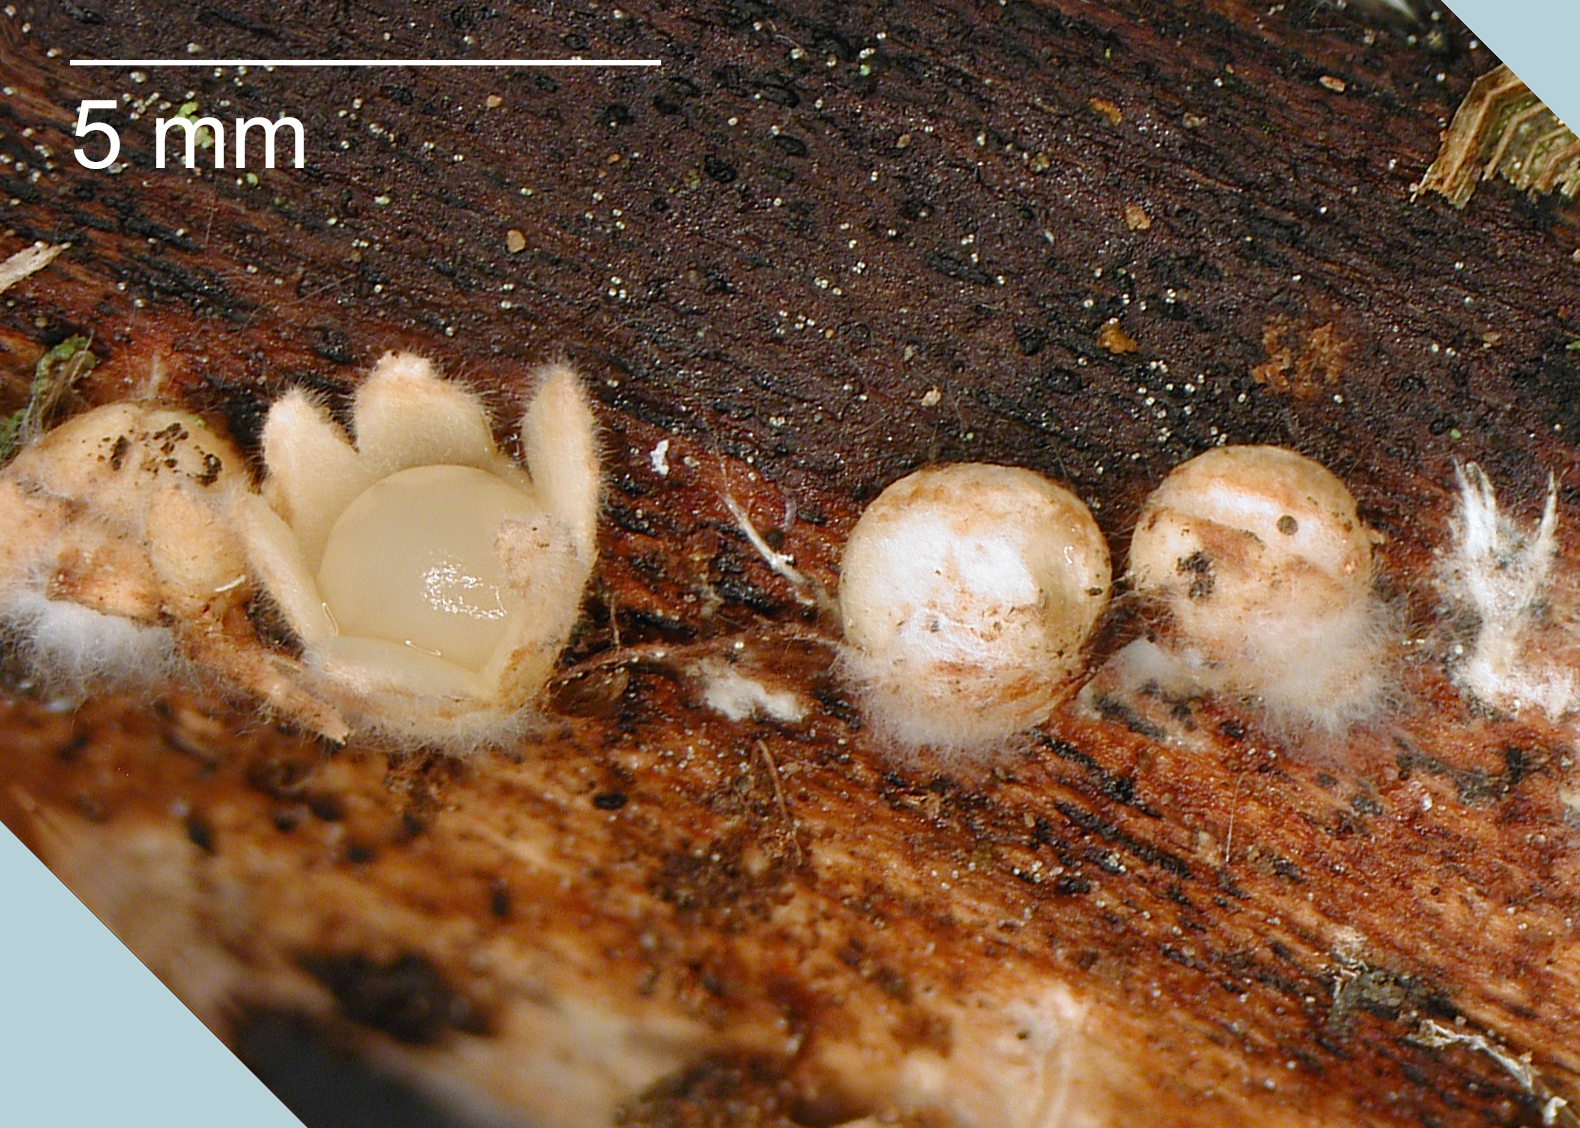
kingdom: Fungi
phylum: Basidiomycota
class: Agaricomycetes
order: Geastrales
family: Geastraceae
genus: Nidulariopsis
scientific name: Nidulariopsis iowensis
